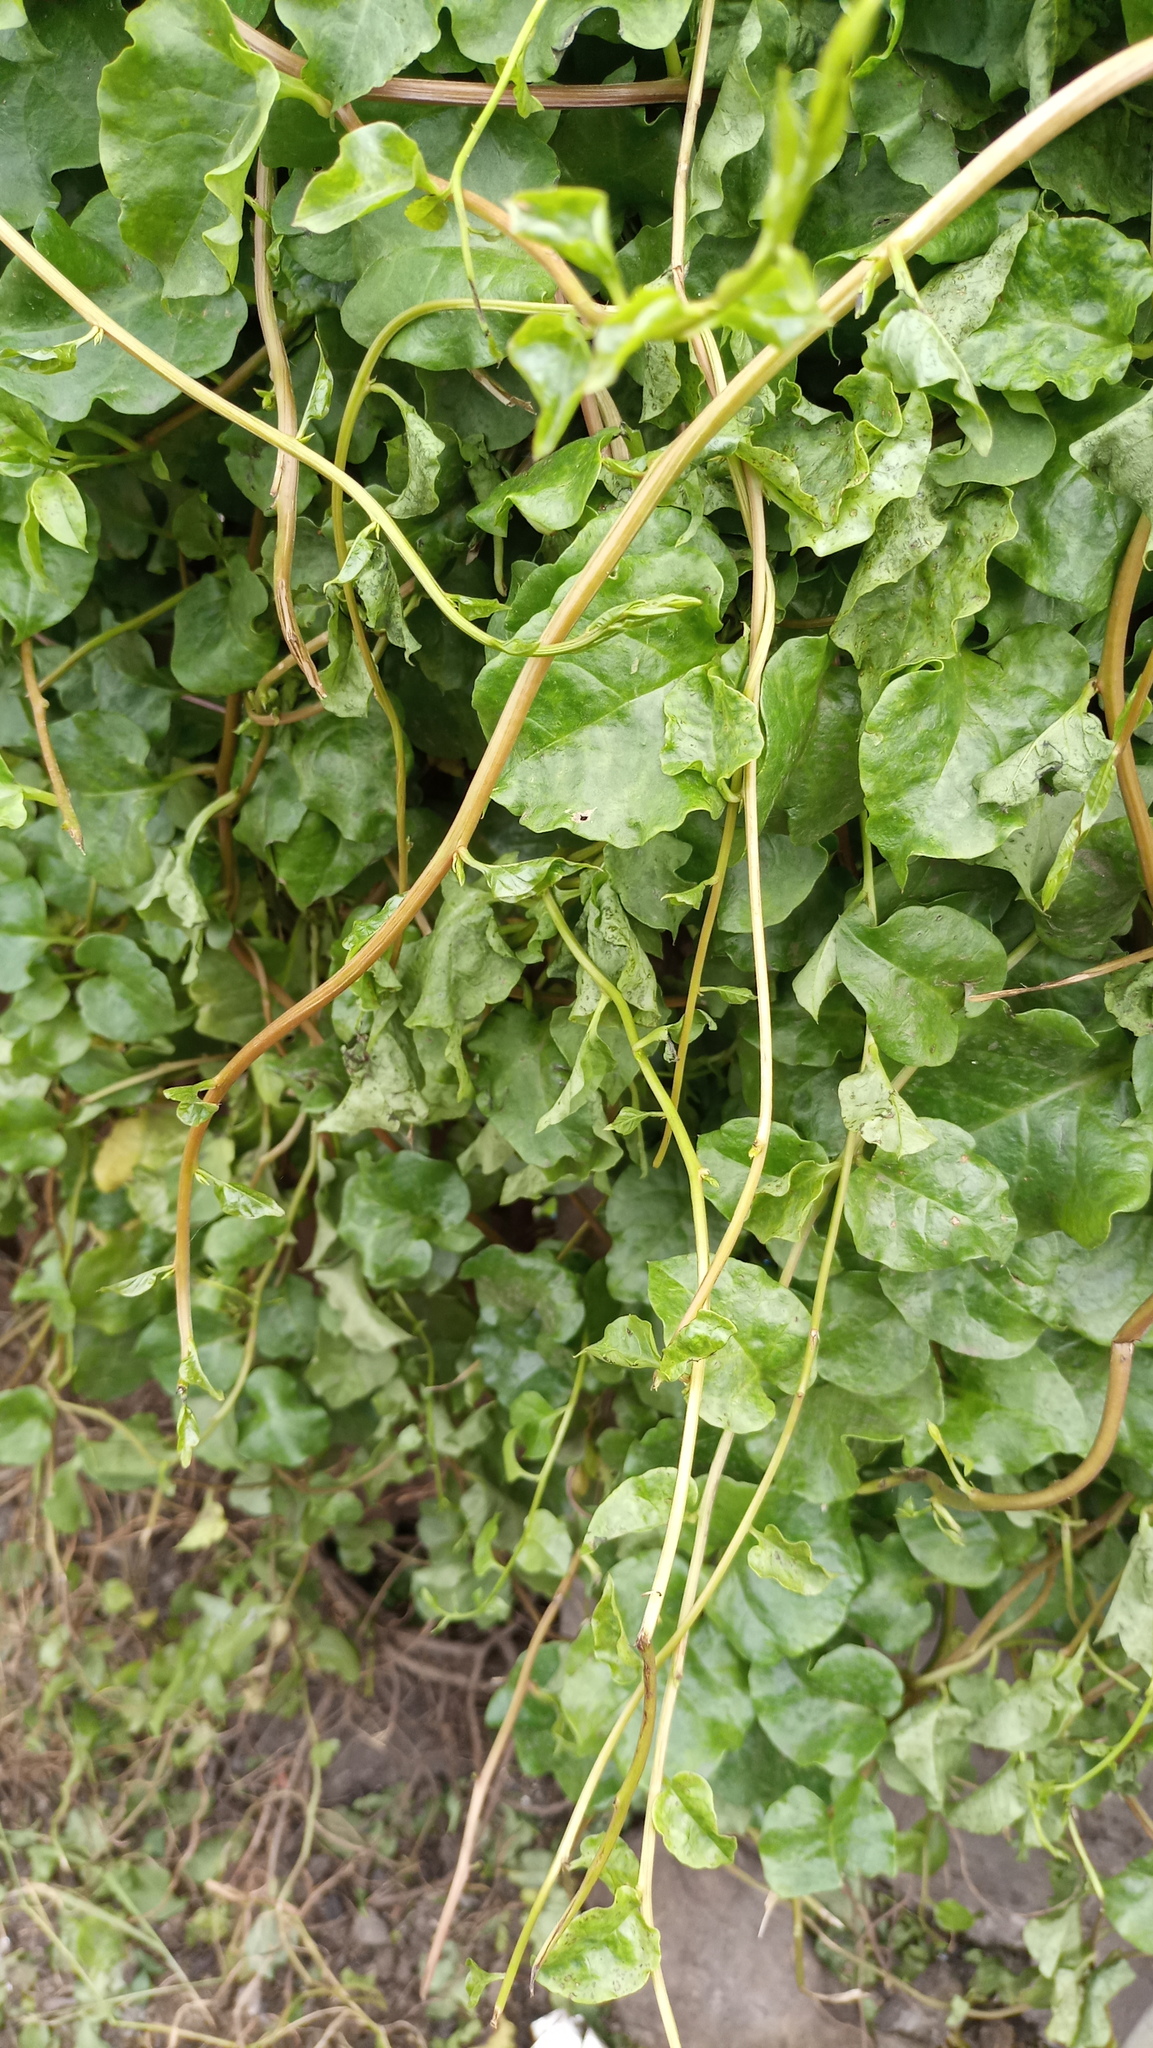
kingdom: Plantae
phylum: Tracheophyta
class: Magnoliopsida
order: Caryophyllales
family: Basellaceae
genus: Anredera
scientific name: Anredera cordifolia
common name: Heartleaf madeiravine
